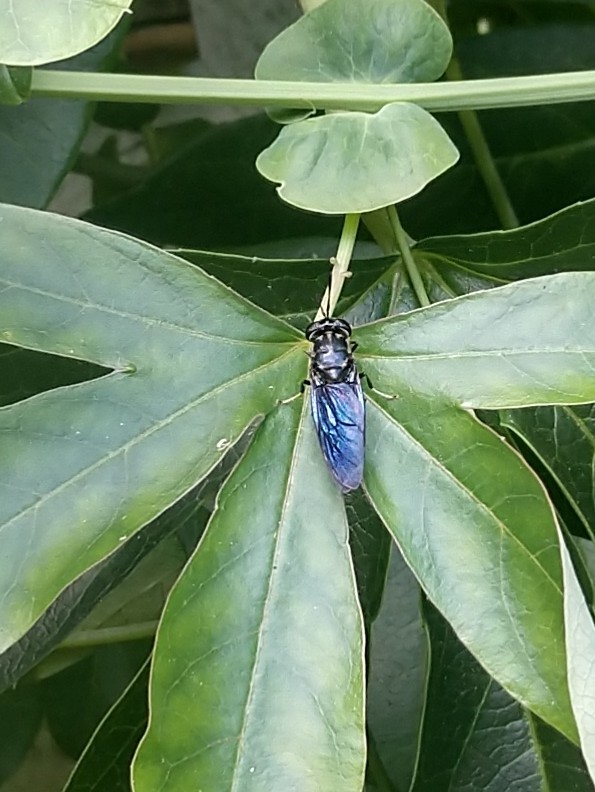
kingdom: Animalia
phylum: Arthropoda
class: Insecta
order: Diptera
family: Stratiomyidae
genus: Hermetia
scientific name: Hermetia illucens
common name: Black soldier fly
